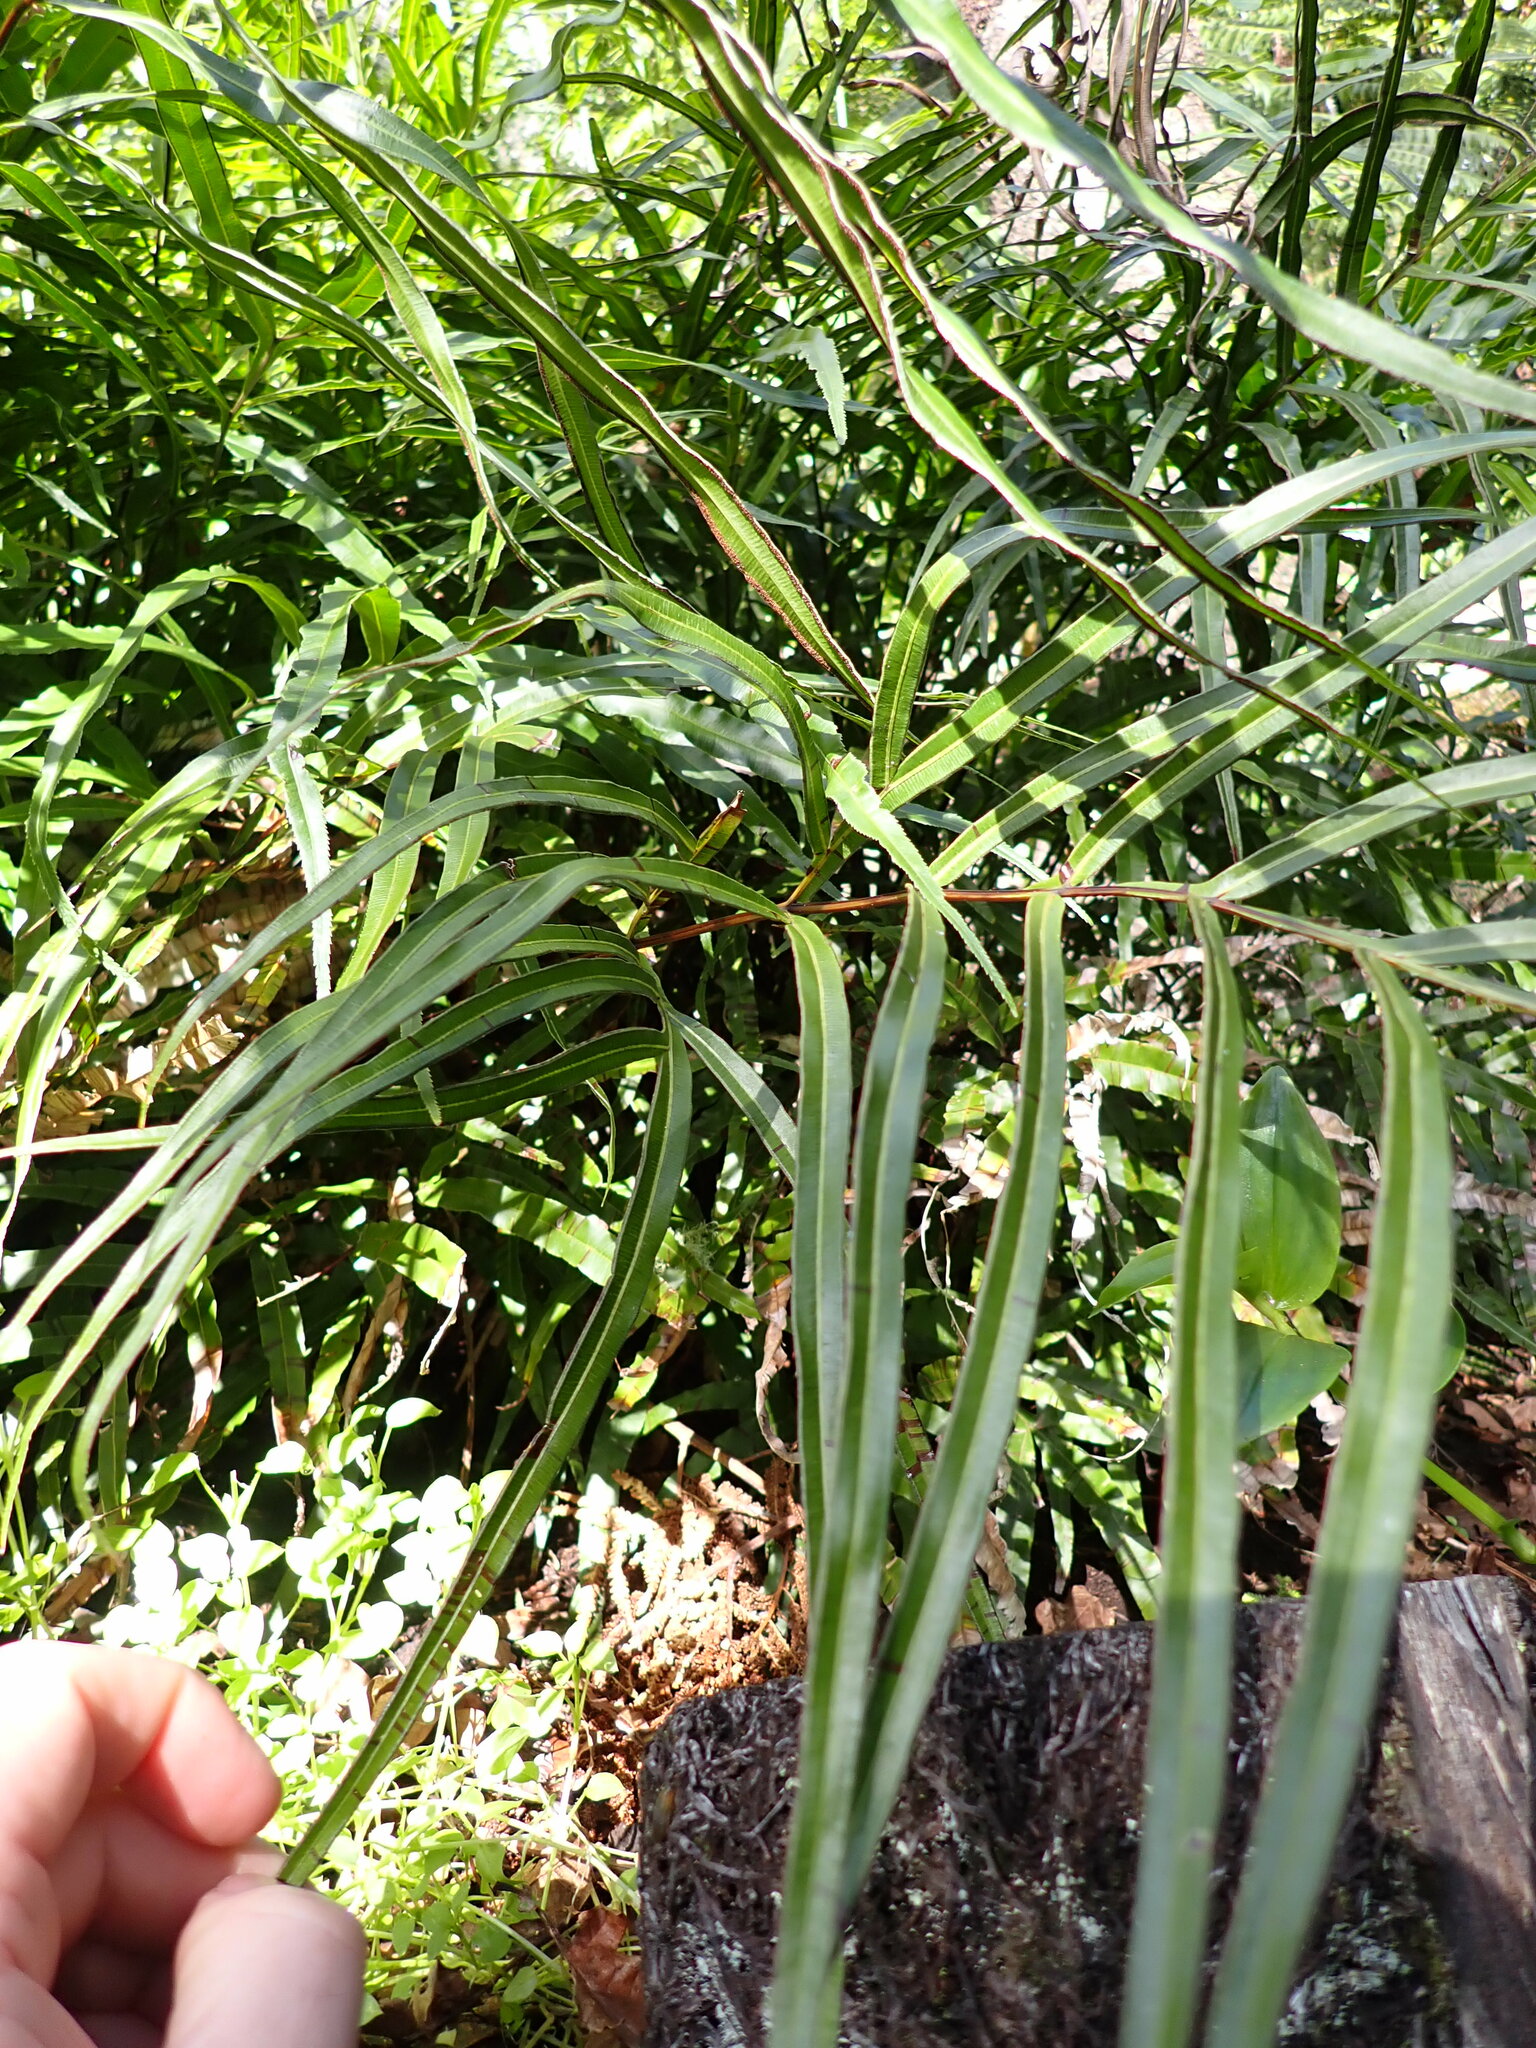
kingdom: Plantae
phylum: Tracheophyta
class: Polypodiopsida
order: Polypodiales
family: Pteridaceae
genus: Pteris
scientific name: Pteris cretica
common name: Ribbon fern
